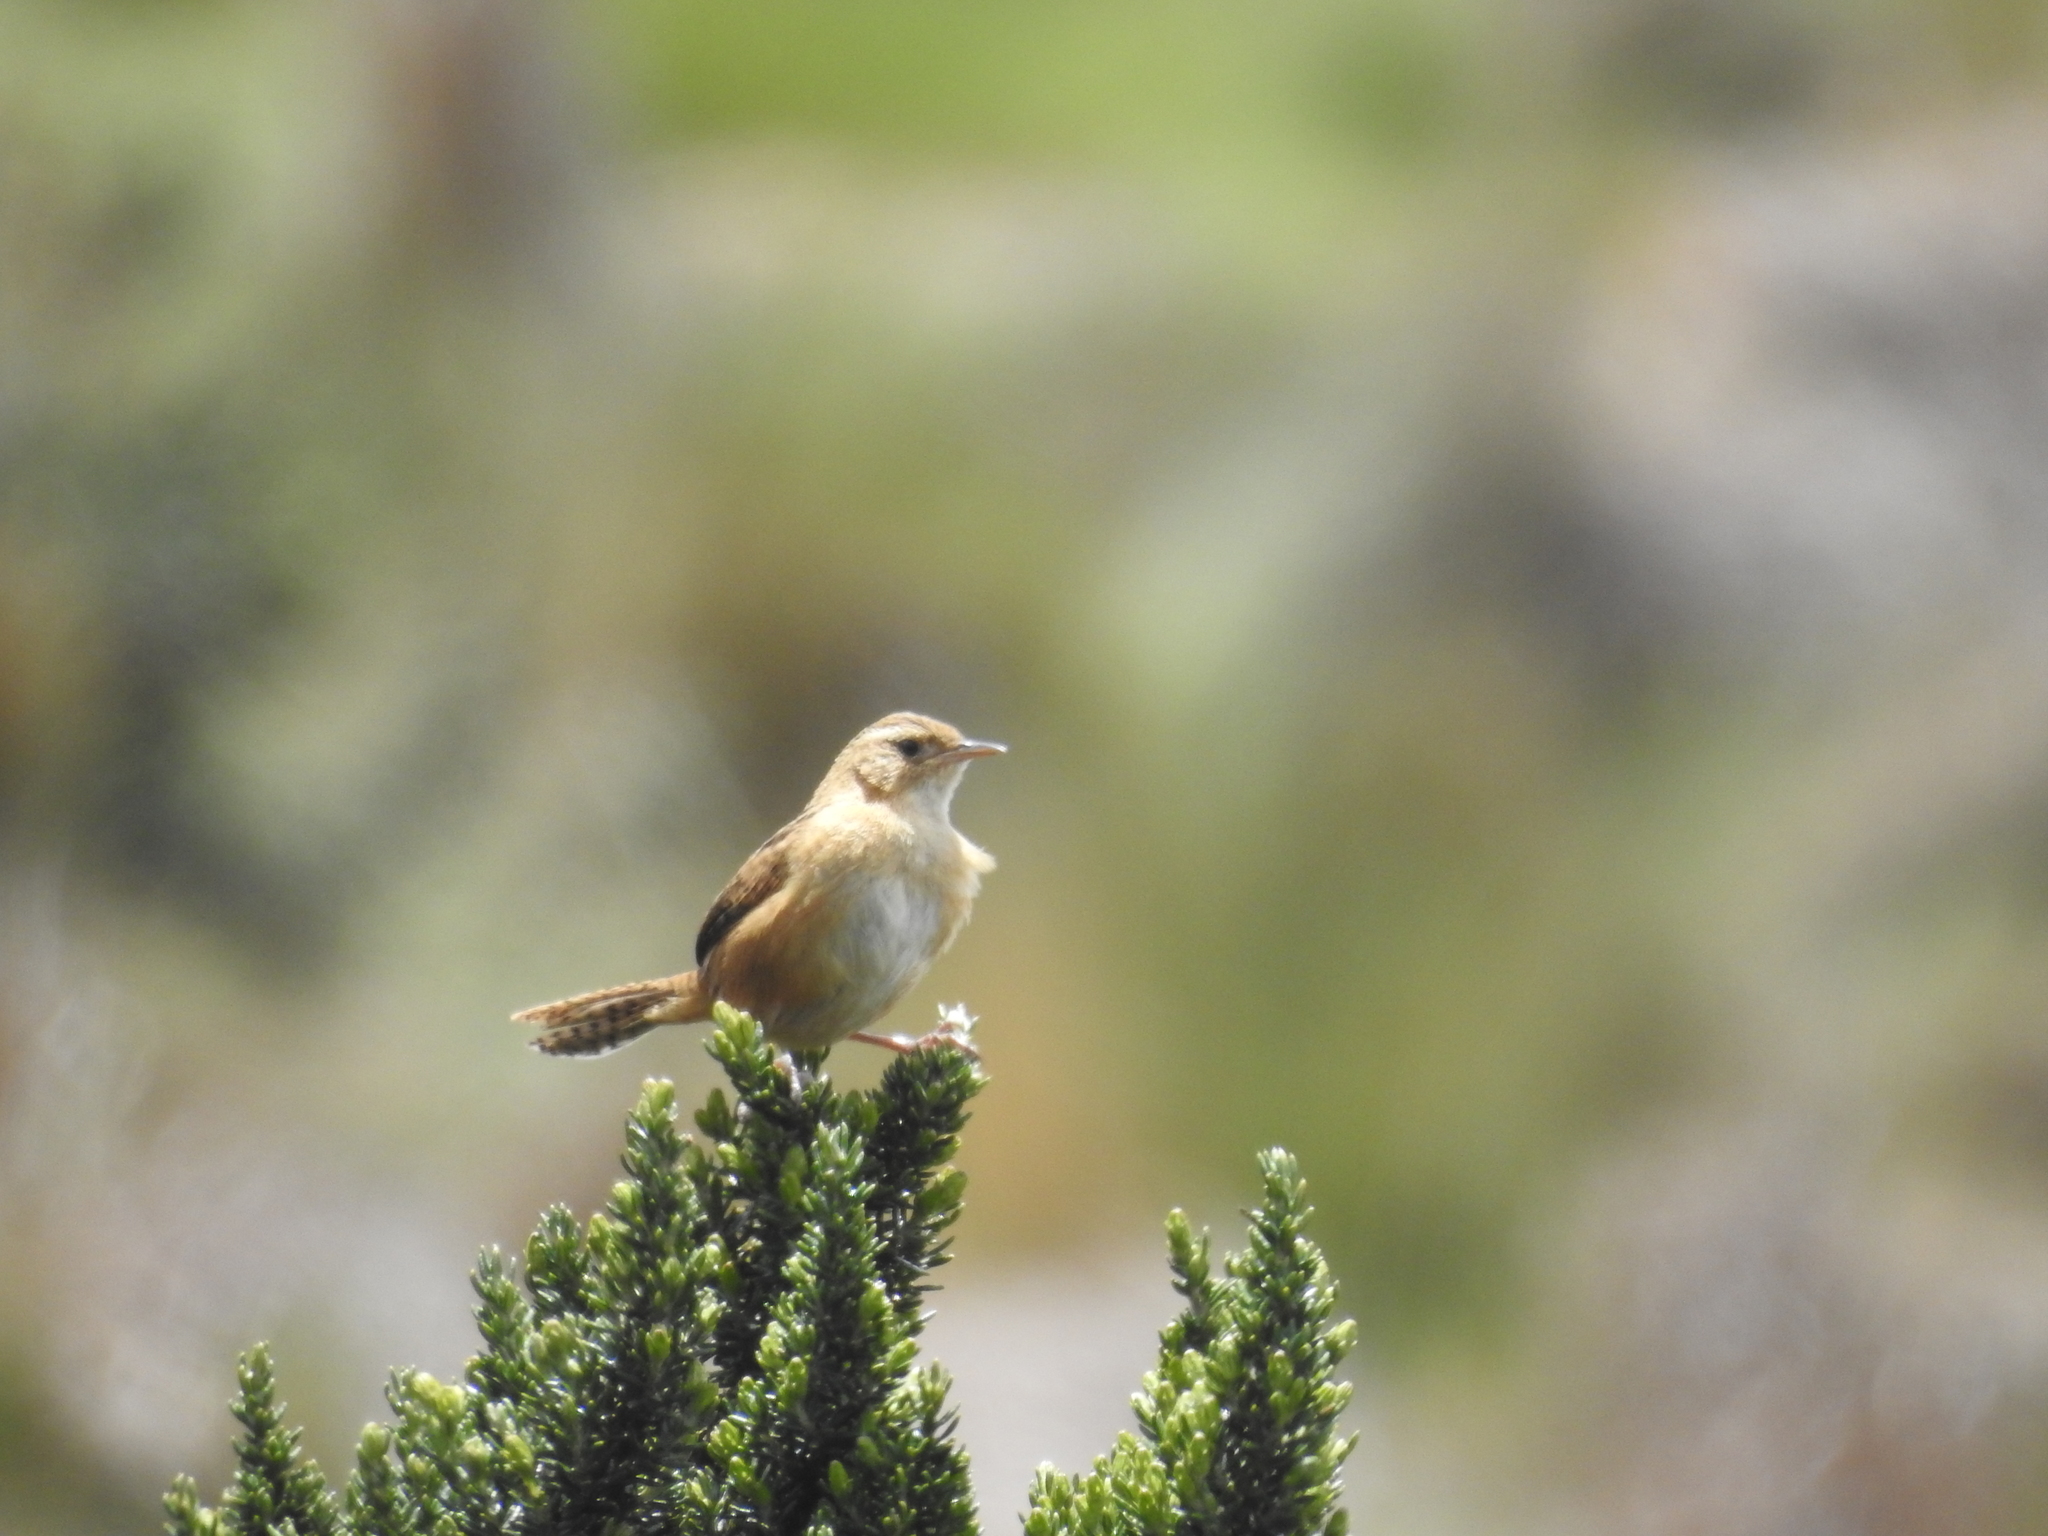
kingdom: Animalia
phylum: Chordata
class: Aves
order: Passeriformes
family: Troglodytidae
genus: Cistothorus
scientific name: Cistothorus platensis
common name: Sedge wren
